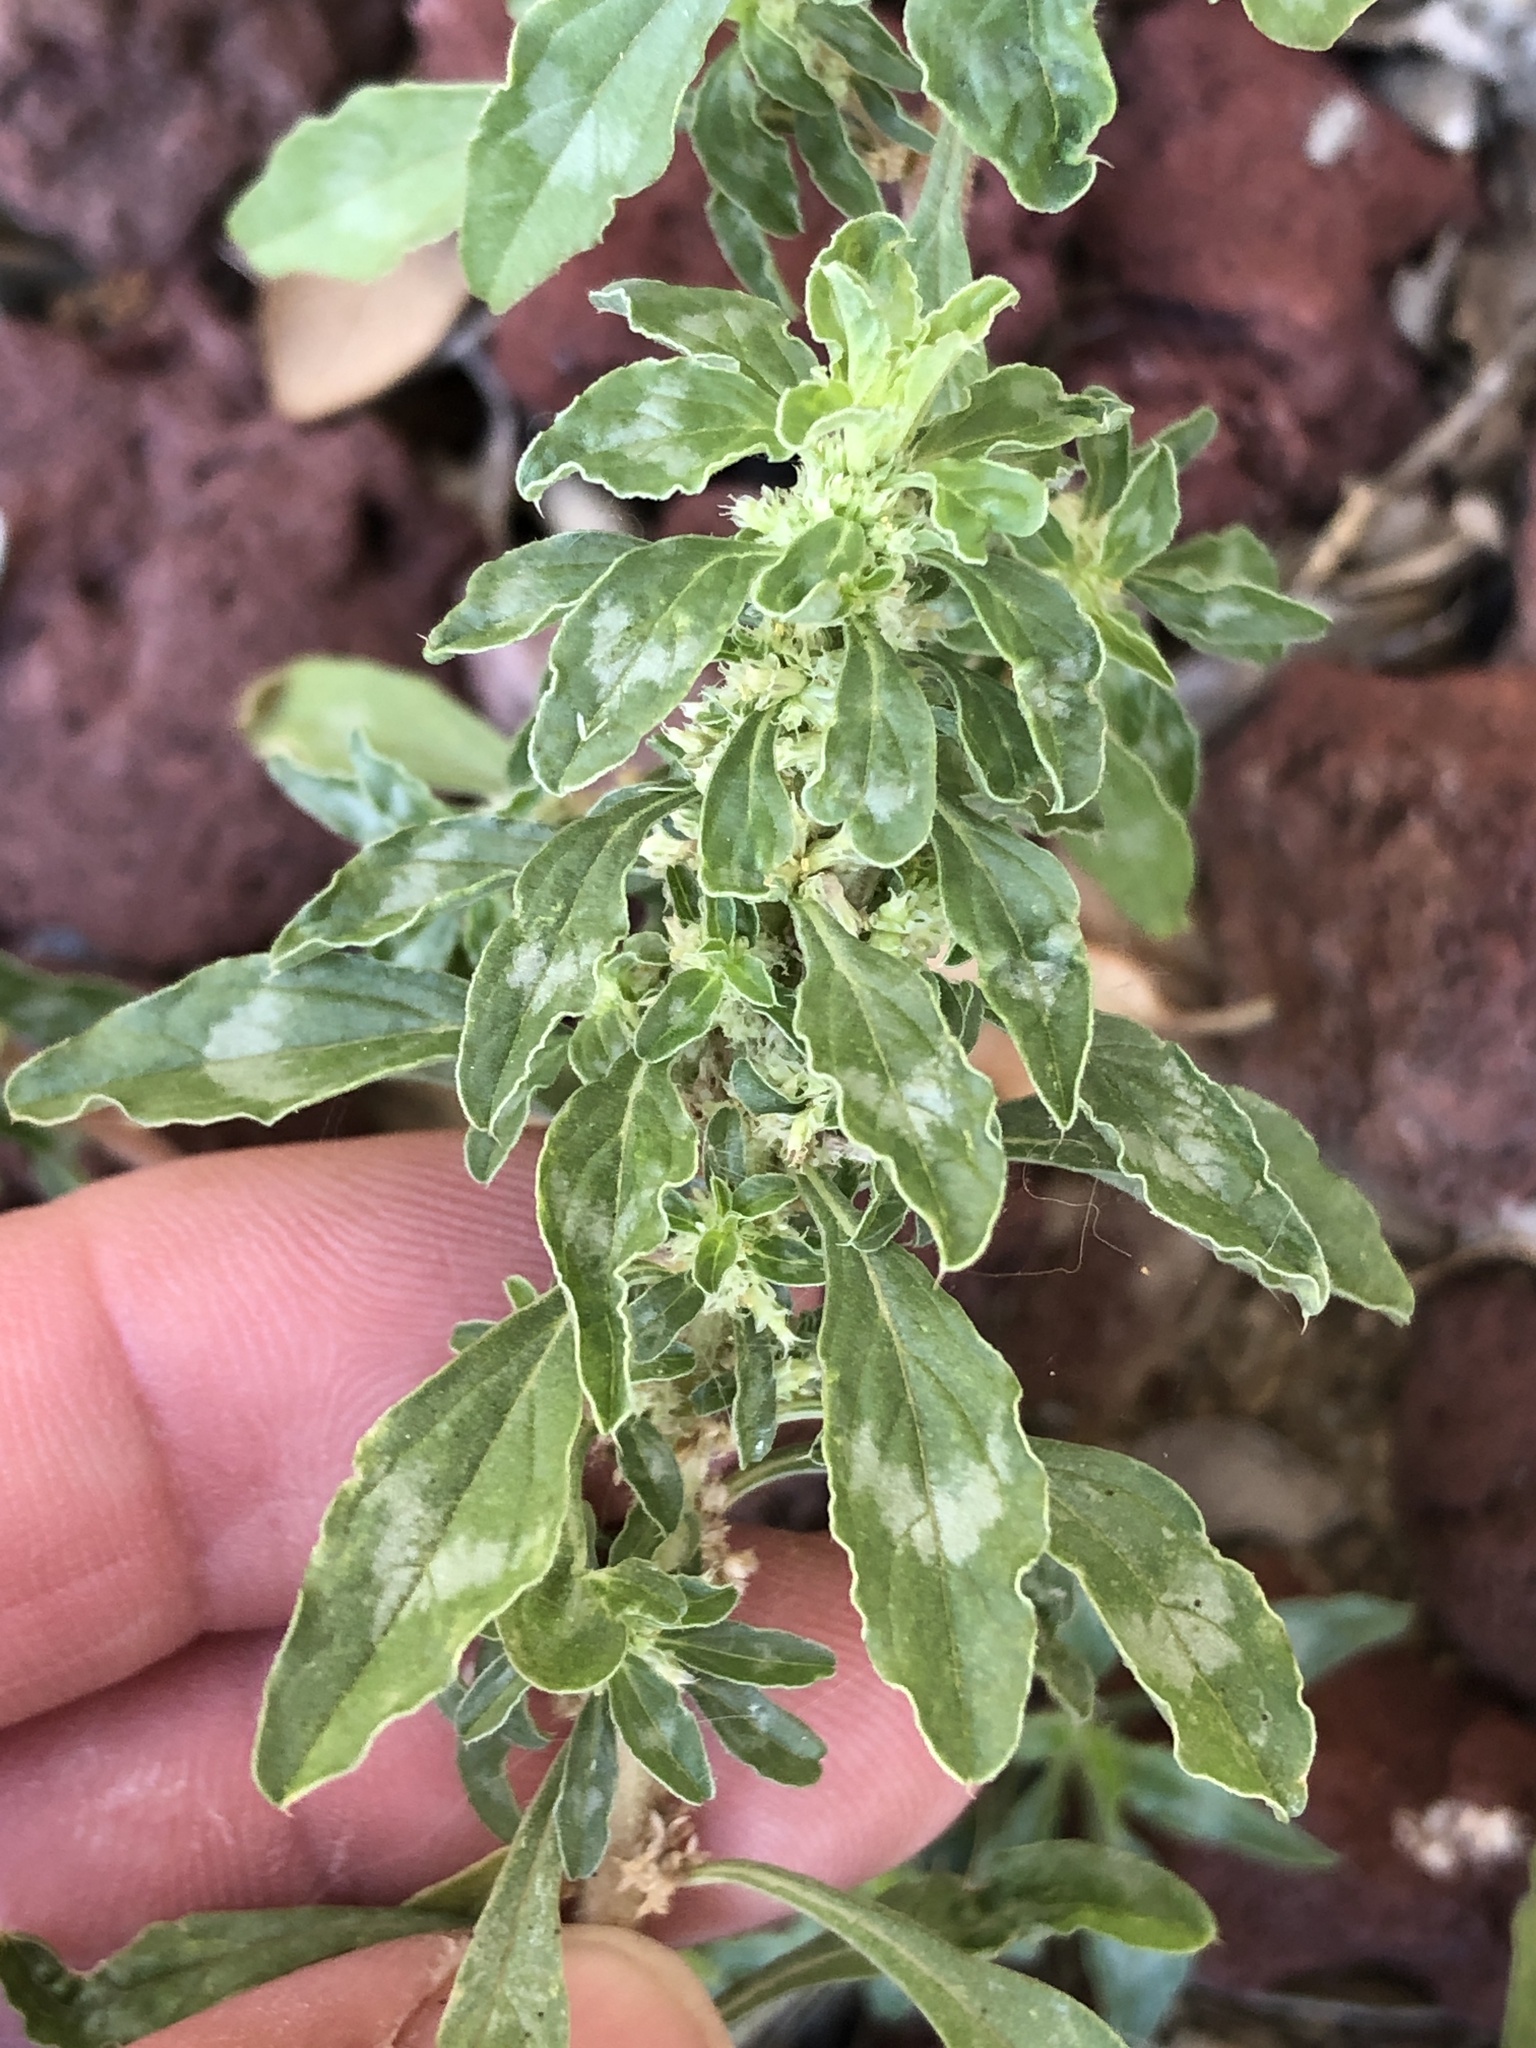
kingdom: Plantae
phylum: Tracheophyta
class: Magnoliopsida
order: Caryophyllales
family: Amaranthaceae
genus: Amaranthus
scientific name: Amaranthus polygonoides
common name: Tropical amaranth
